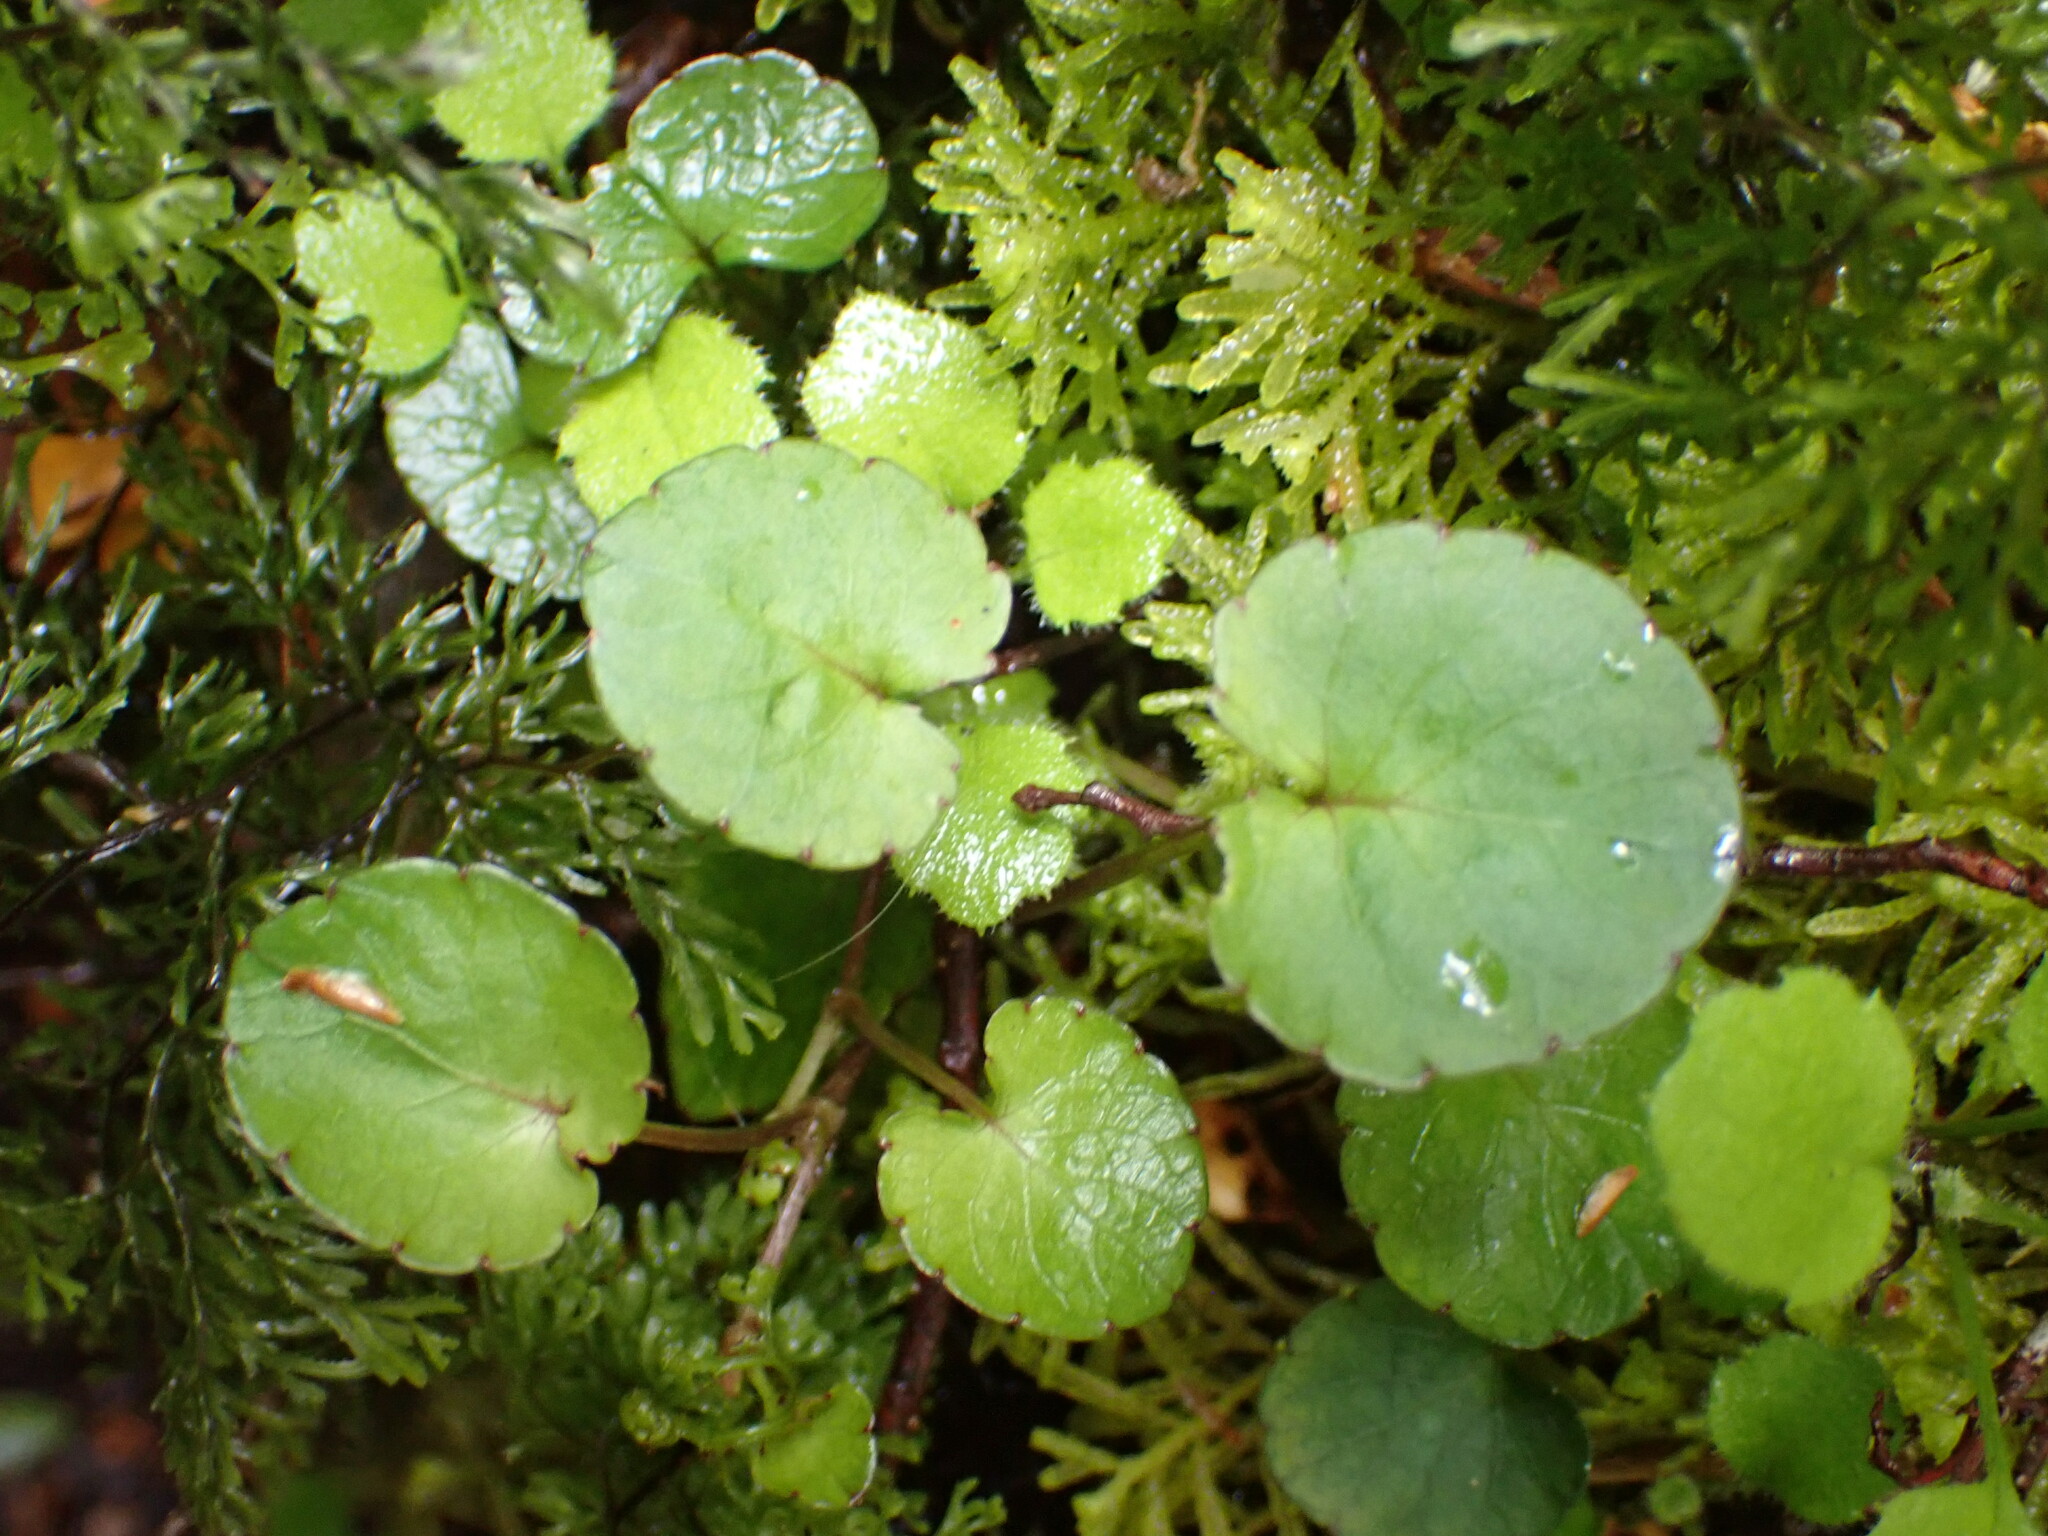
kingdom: Plantae
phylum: Tracheophyta
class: Magnoliopsida
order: Malpighiales
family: Violaceae
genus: Viola
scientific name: Viola filicaulis
